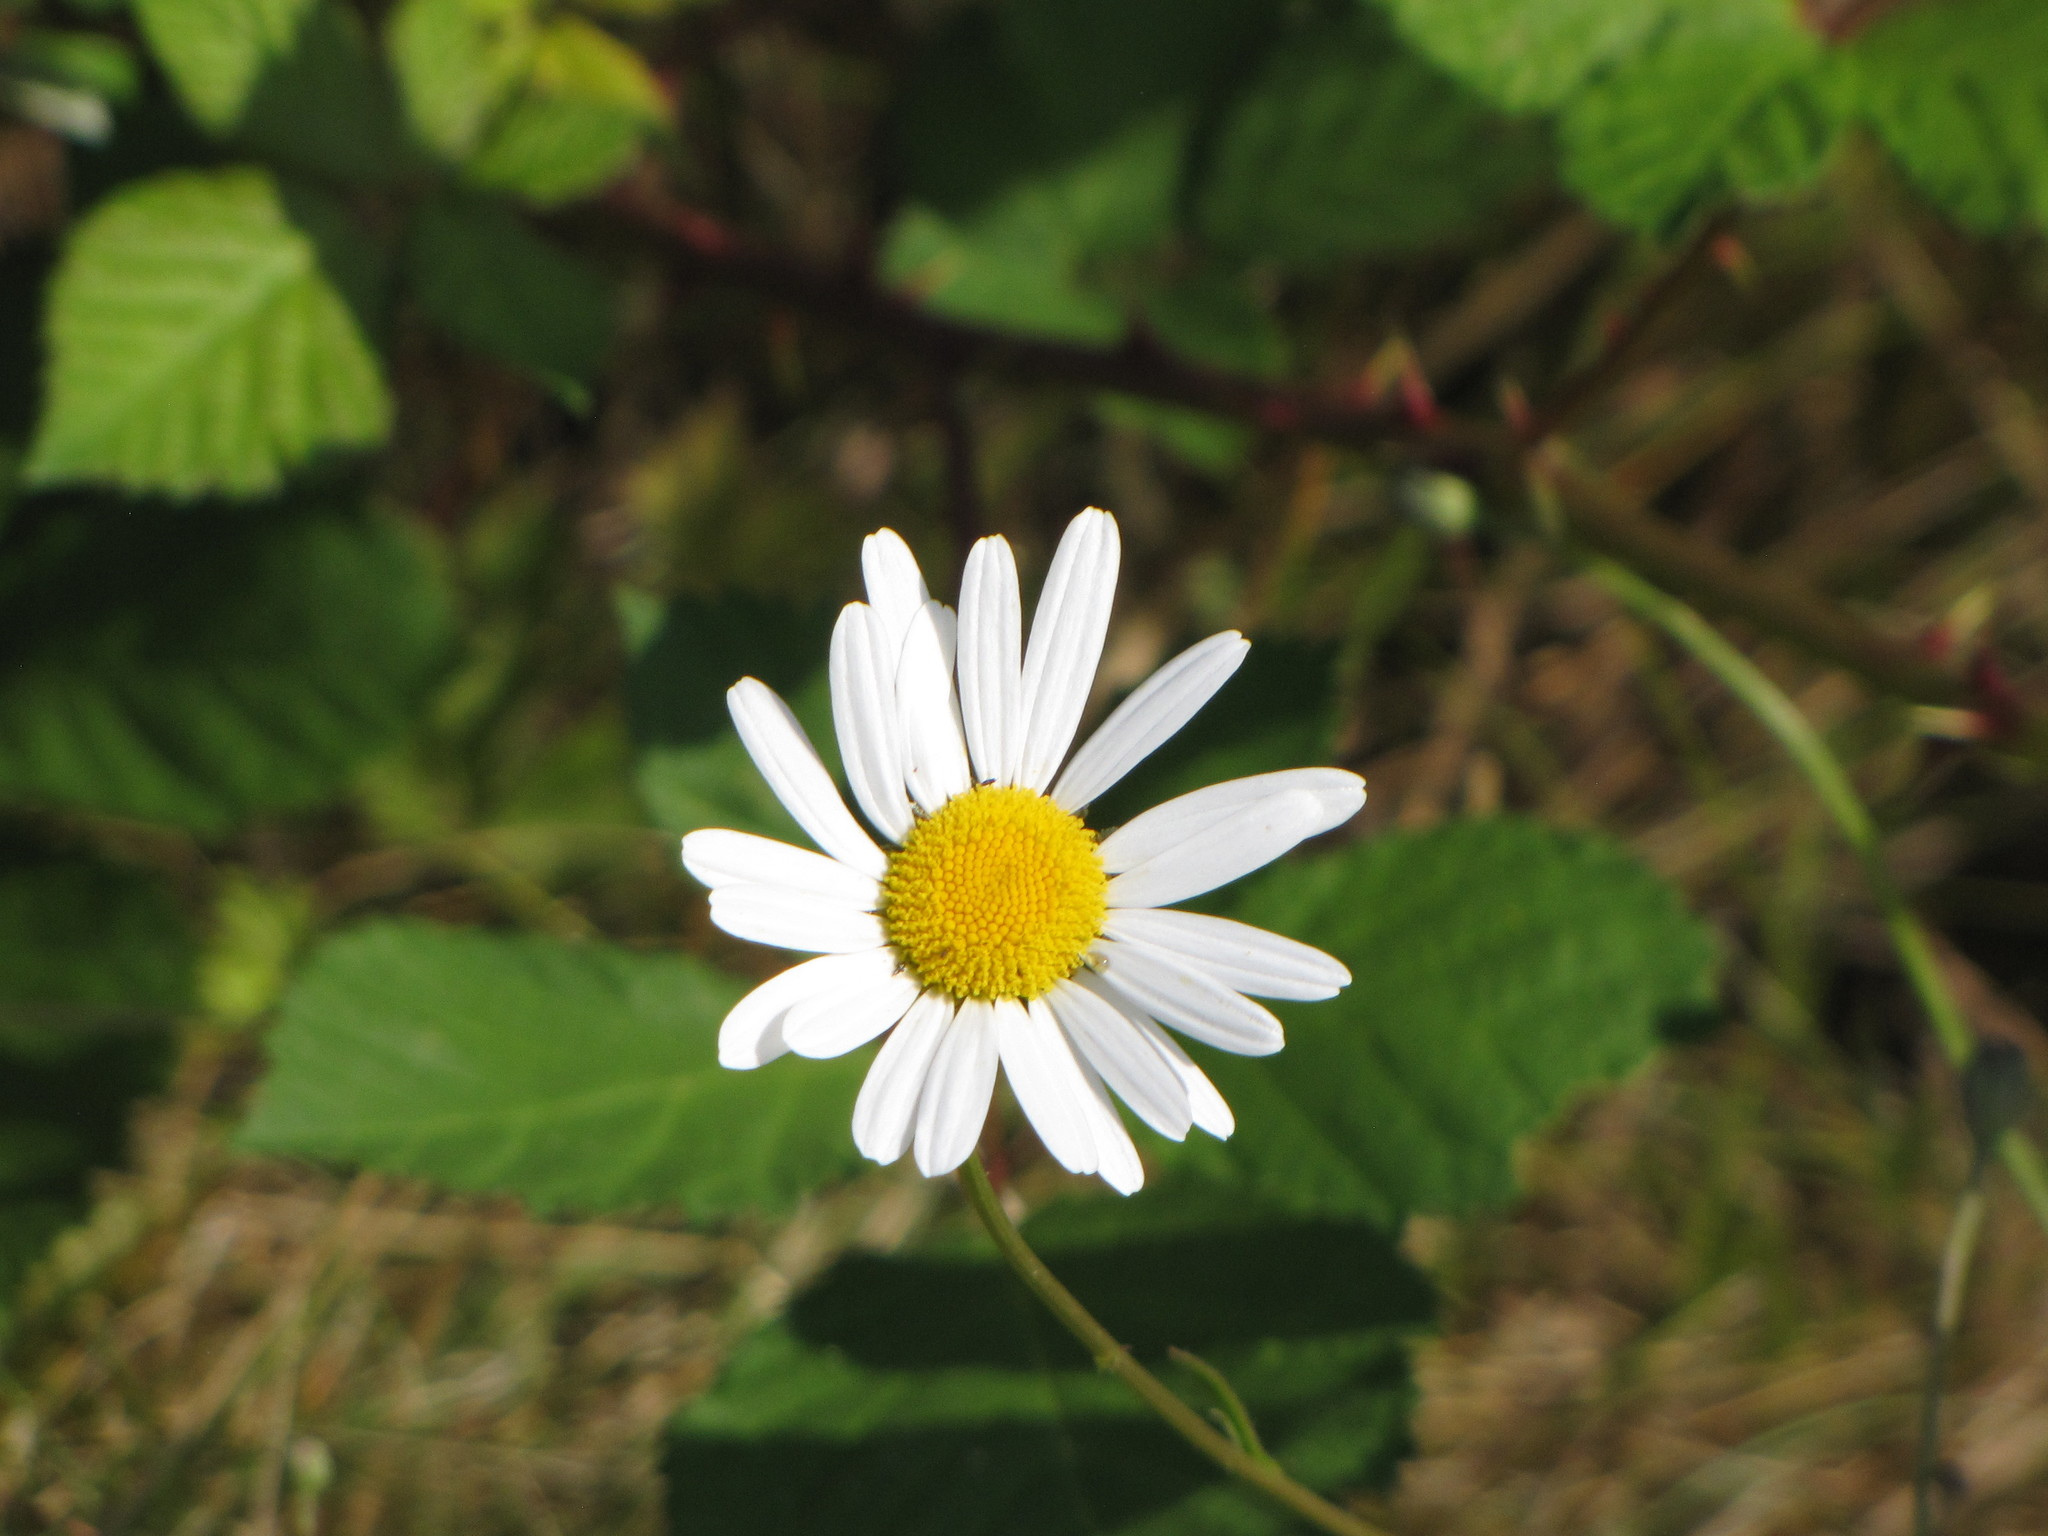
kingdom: Plantae
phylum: Tracheophyta
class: Magnoliopsida
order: Asterales
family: Asteraceae
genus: Leucanthemum
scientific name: Leucanthemum vulgare
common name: Oxeye daisy
